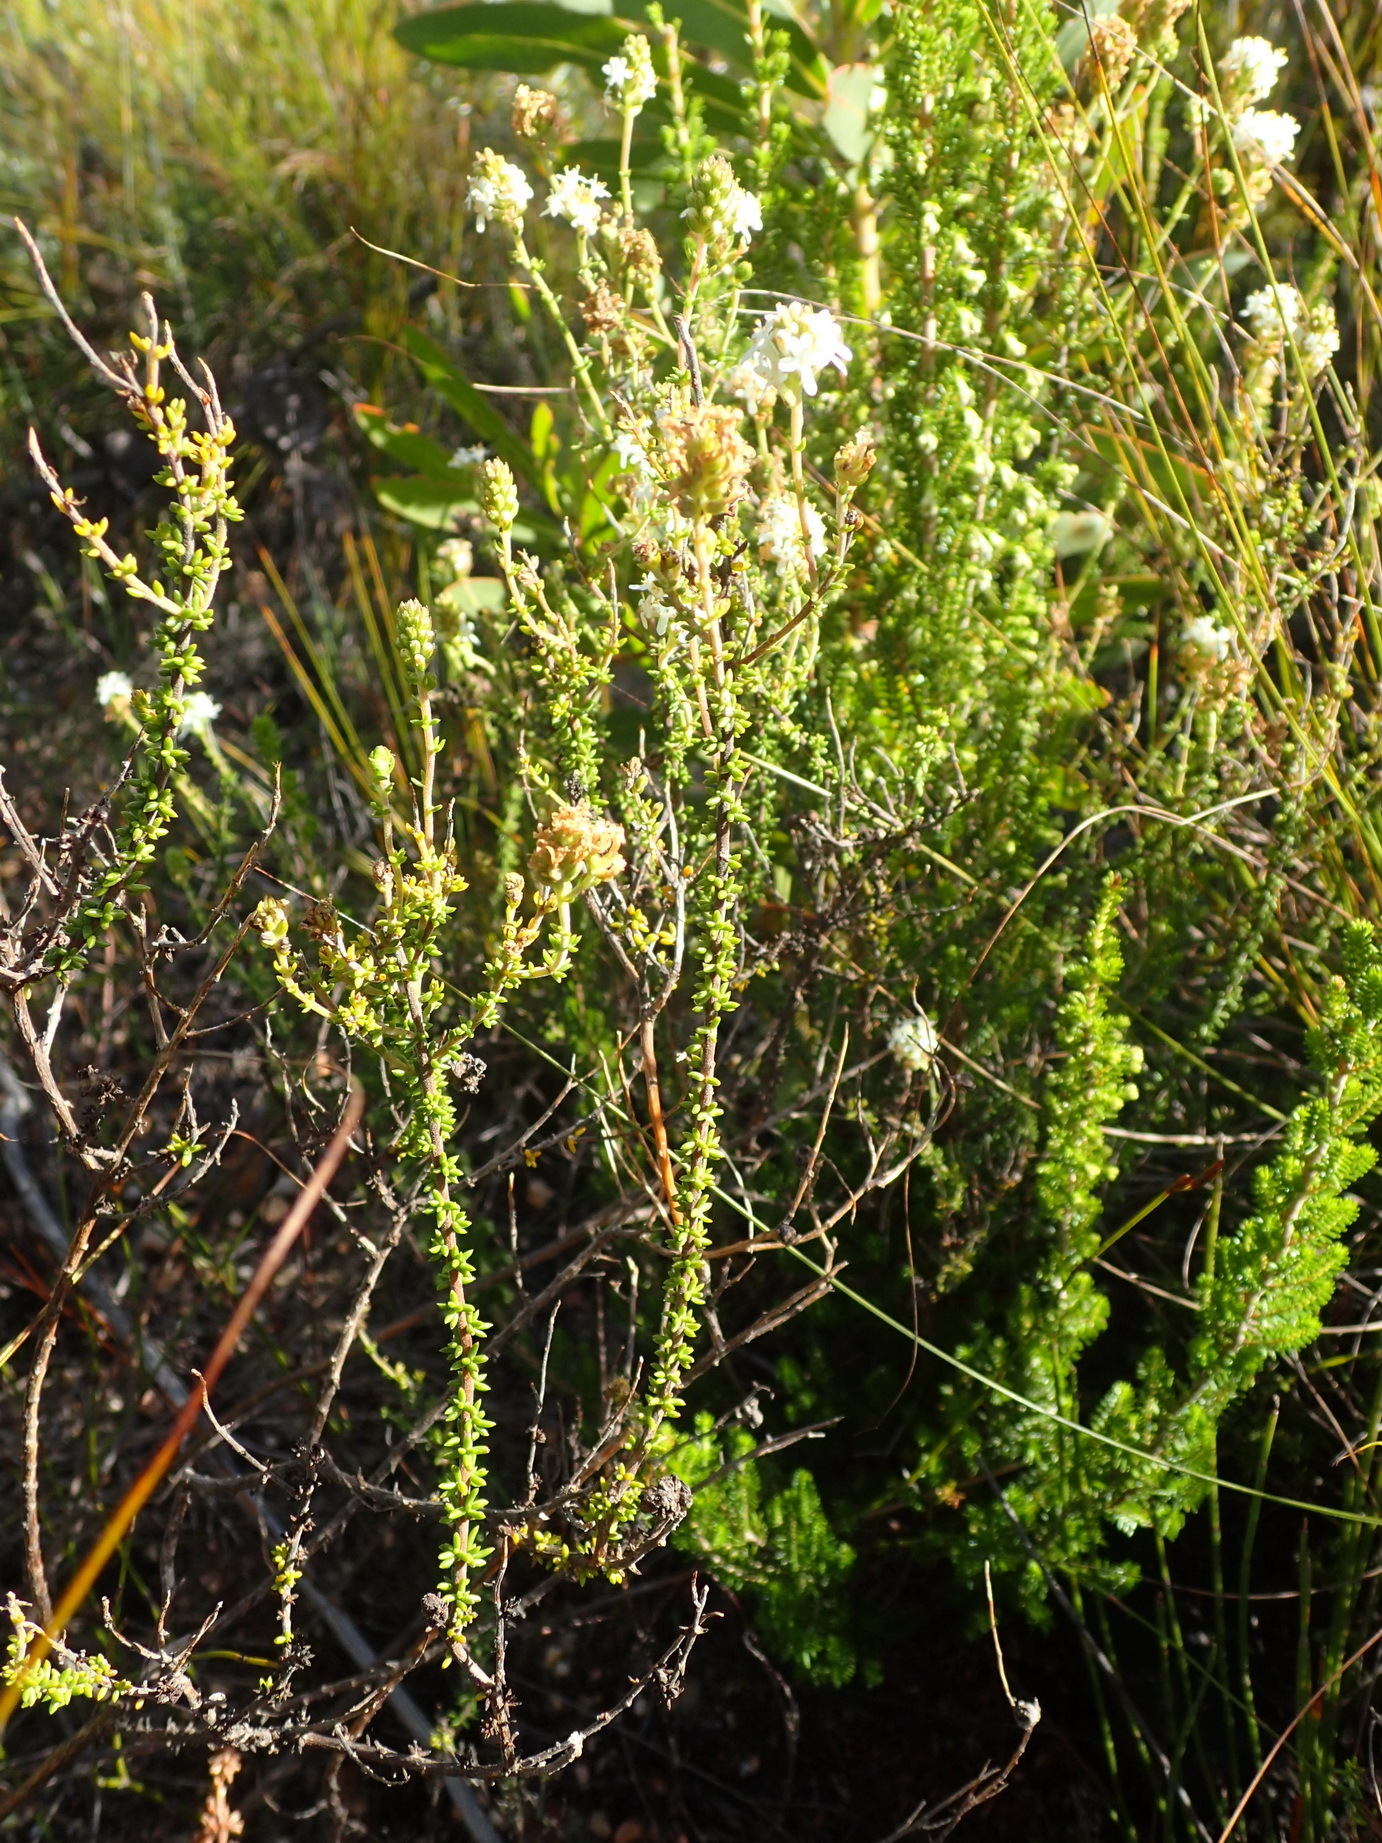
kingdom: Plantae
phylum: Tracheophyta
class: Magnoliopsida
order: Lamiales
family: Scrophulariaceae
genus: Selago
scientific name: Selago brevifolia
